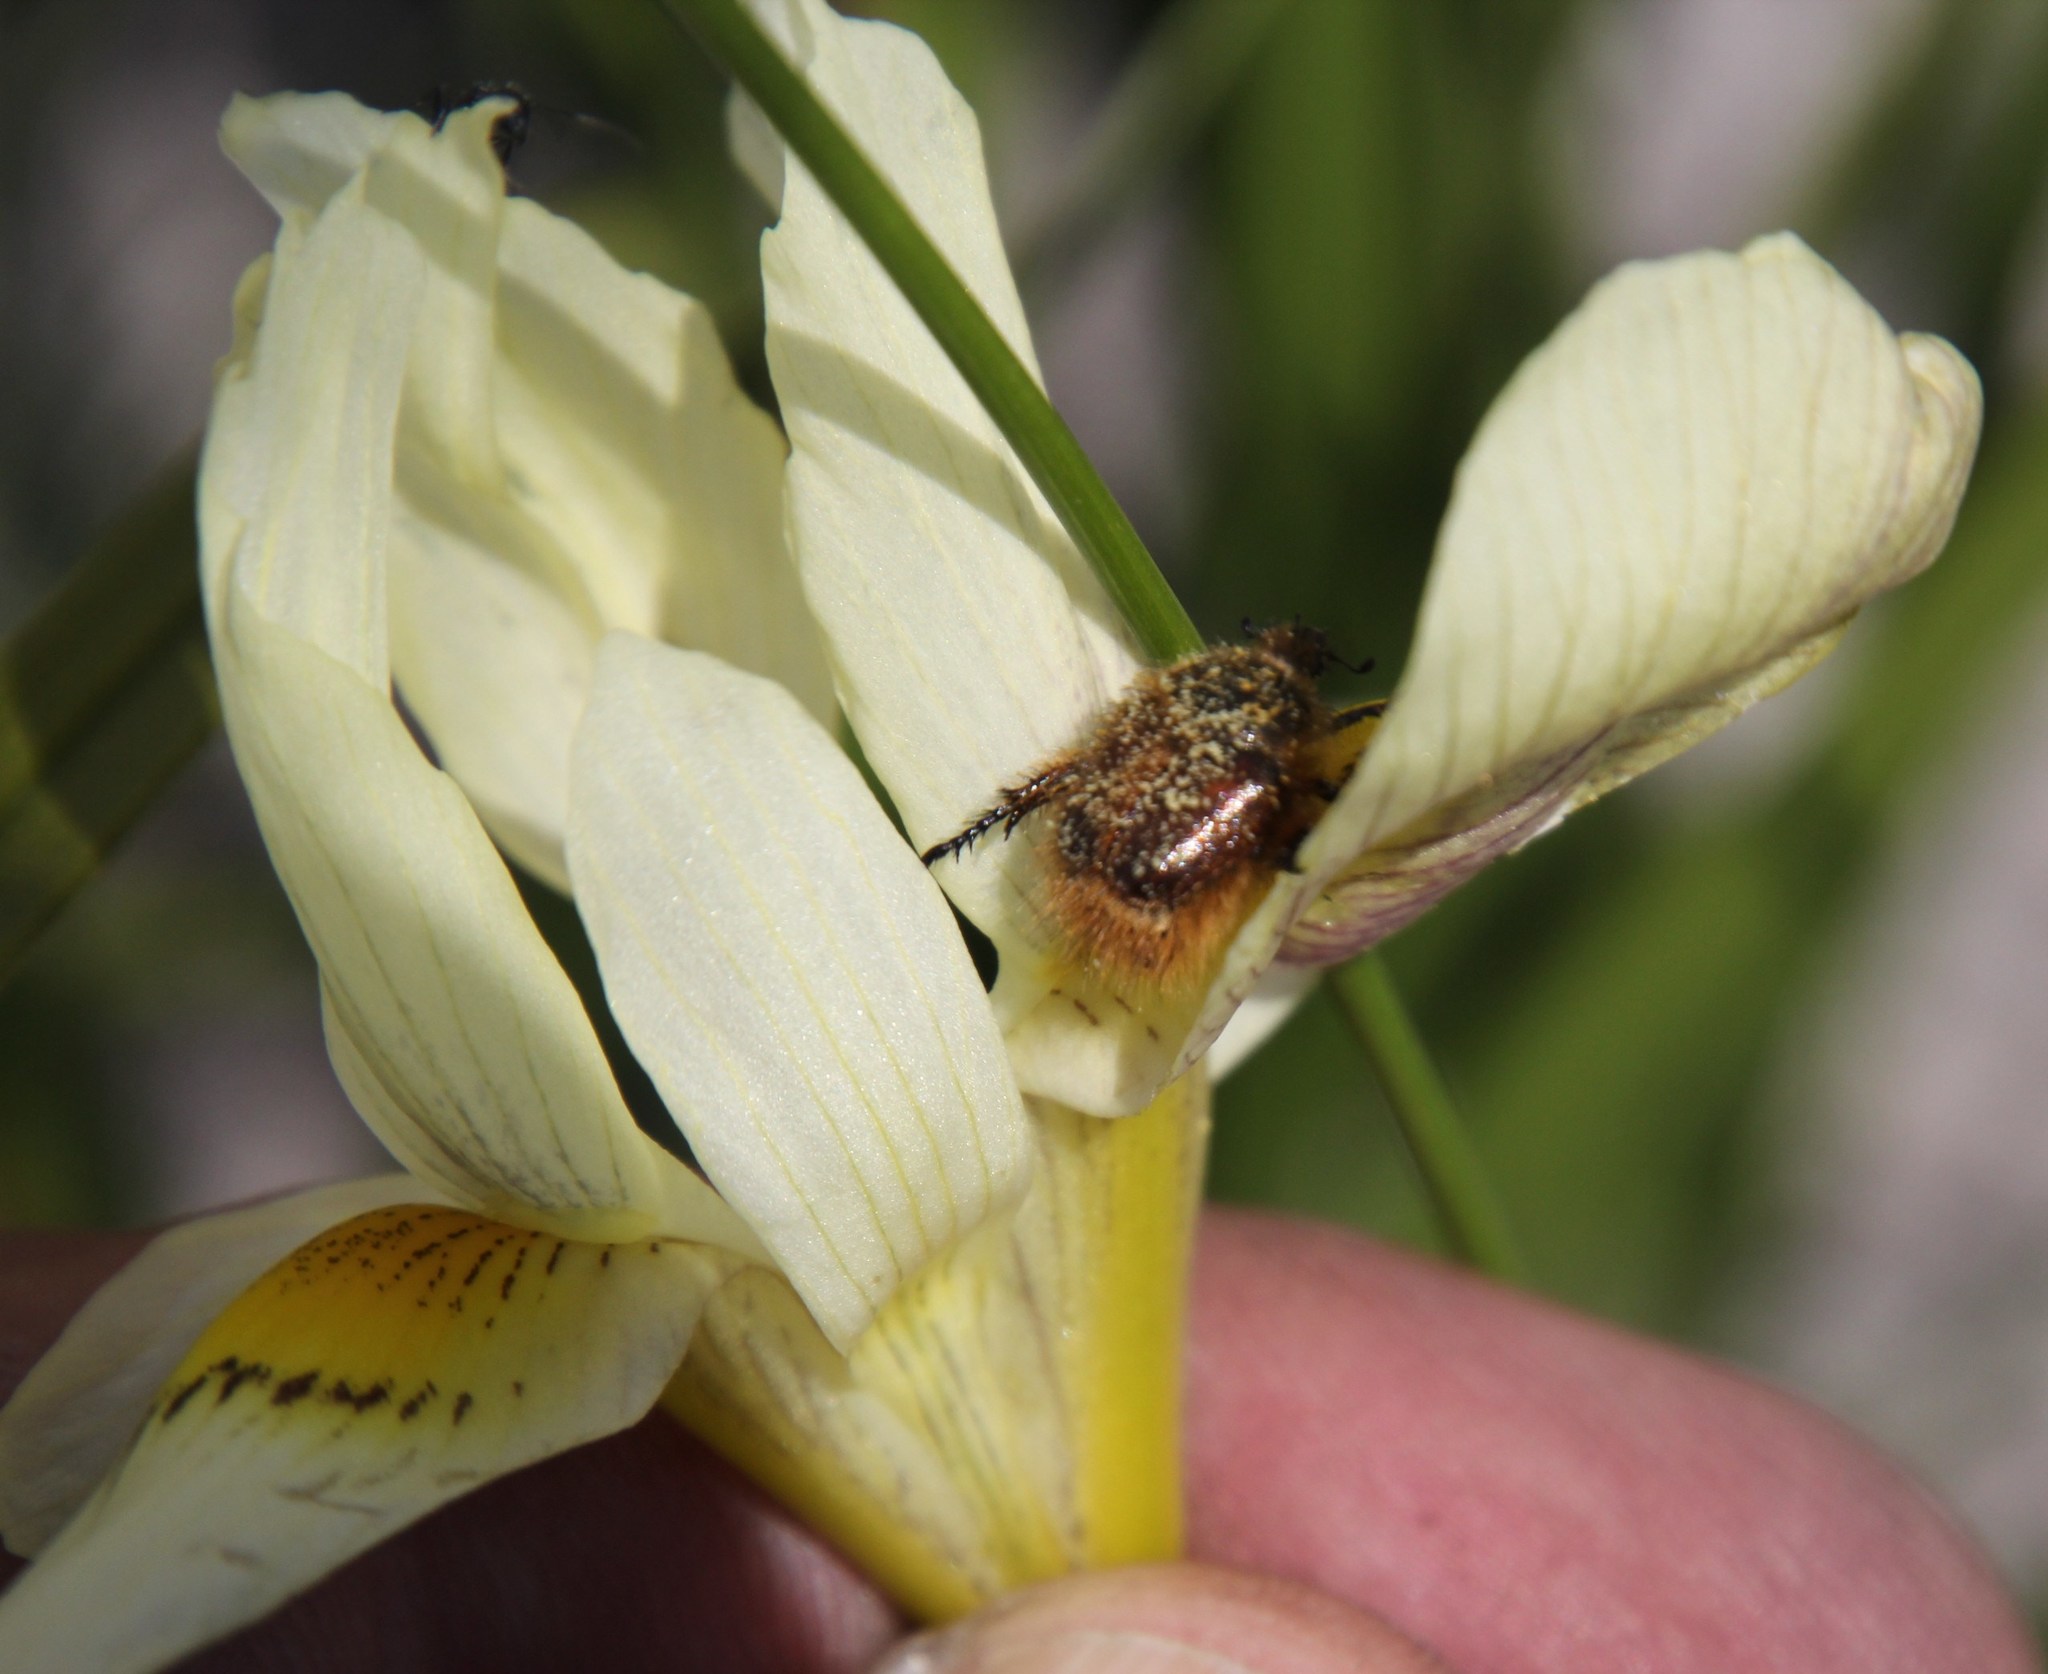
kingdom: Plantae
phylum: Tracheophyta
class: Liliopsida
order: Asparagales
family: Iridaceae
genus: Moraea
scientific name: Moraea angusta
